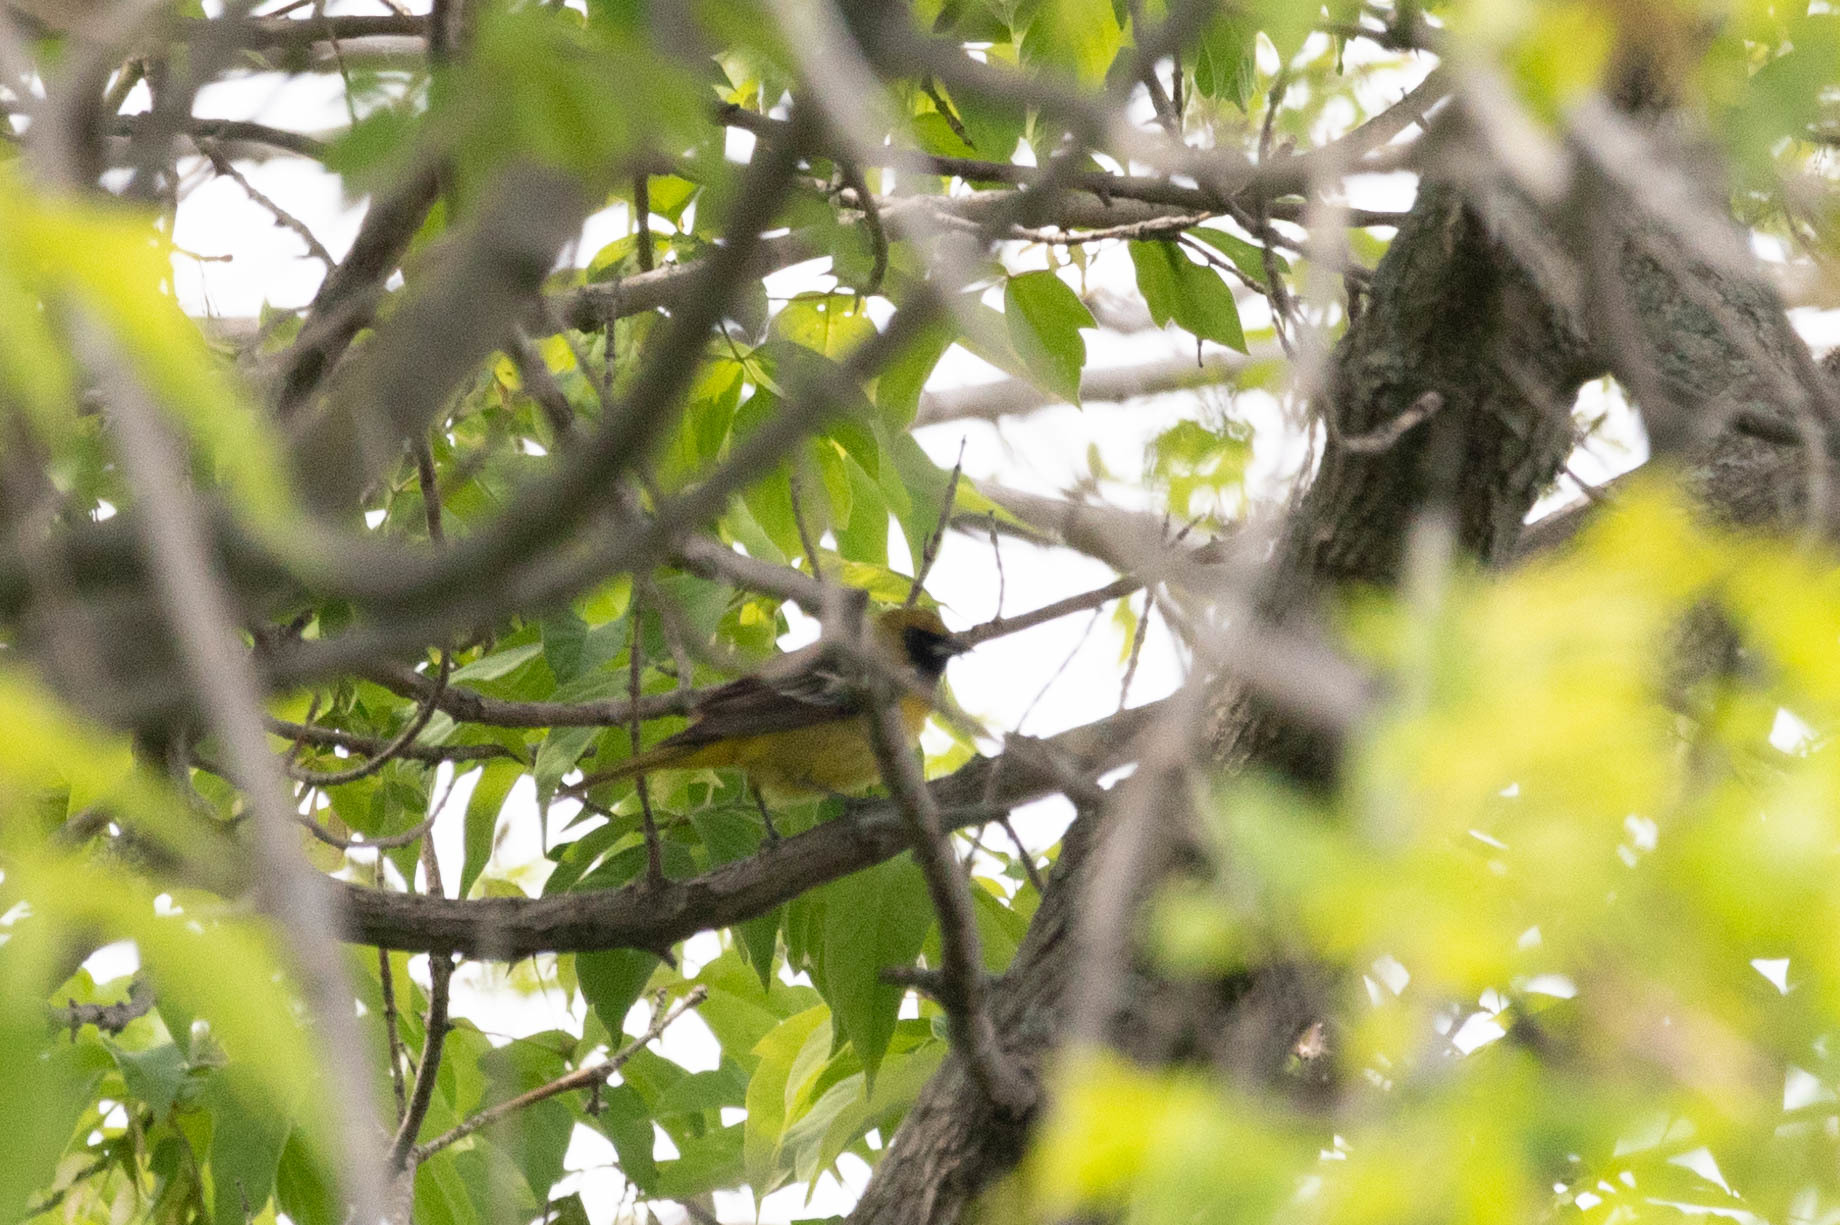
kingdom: Animalia
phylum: Chordata
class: Aves
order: Passeriformes
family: Icteridae
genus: Icterus
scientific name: Icterus spurius
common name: Orchard oriole
